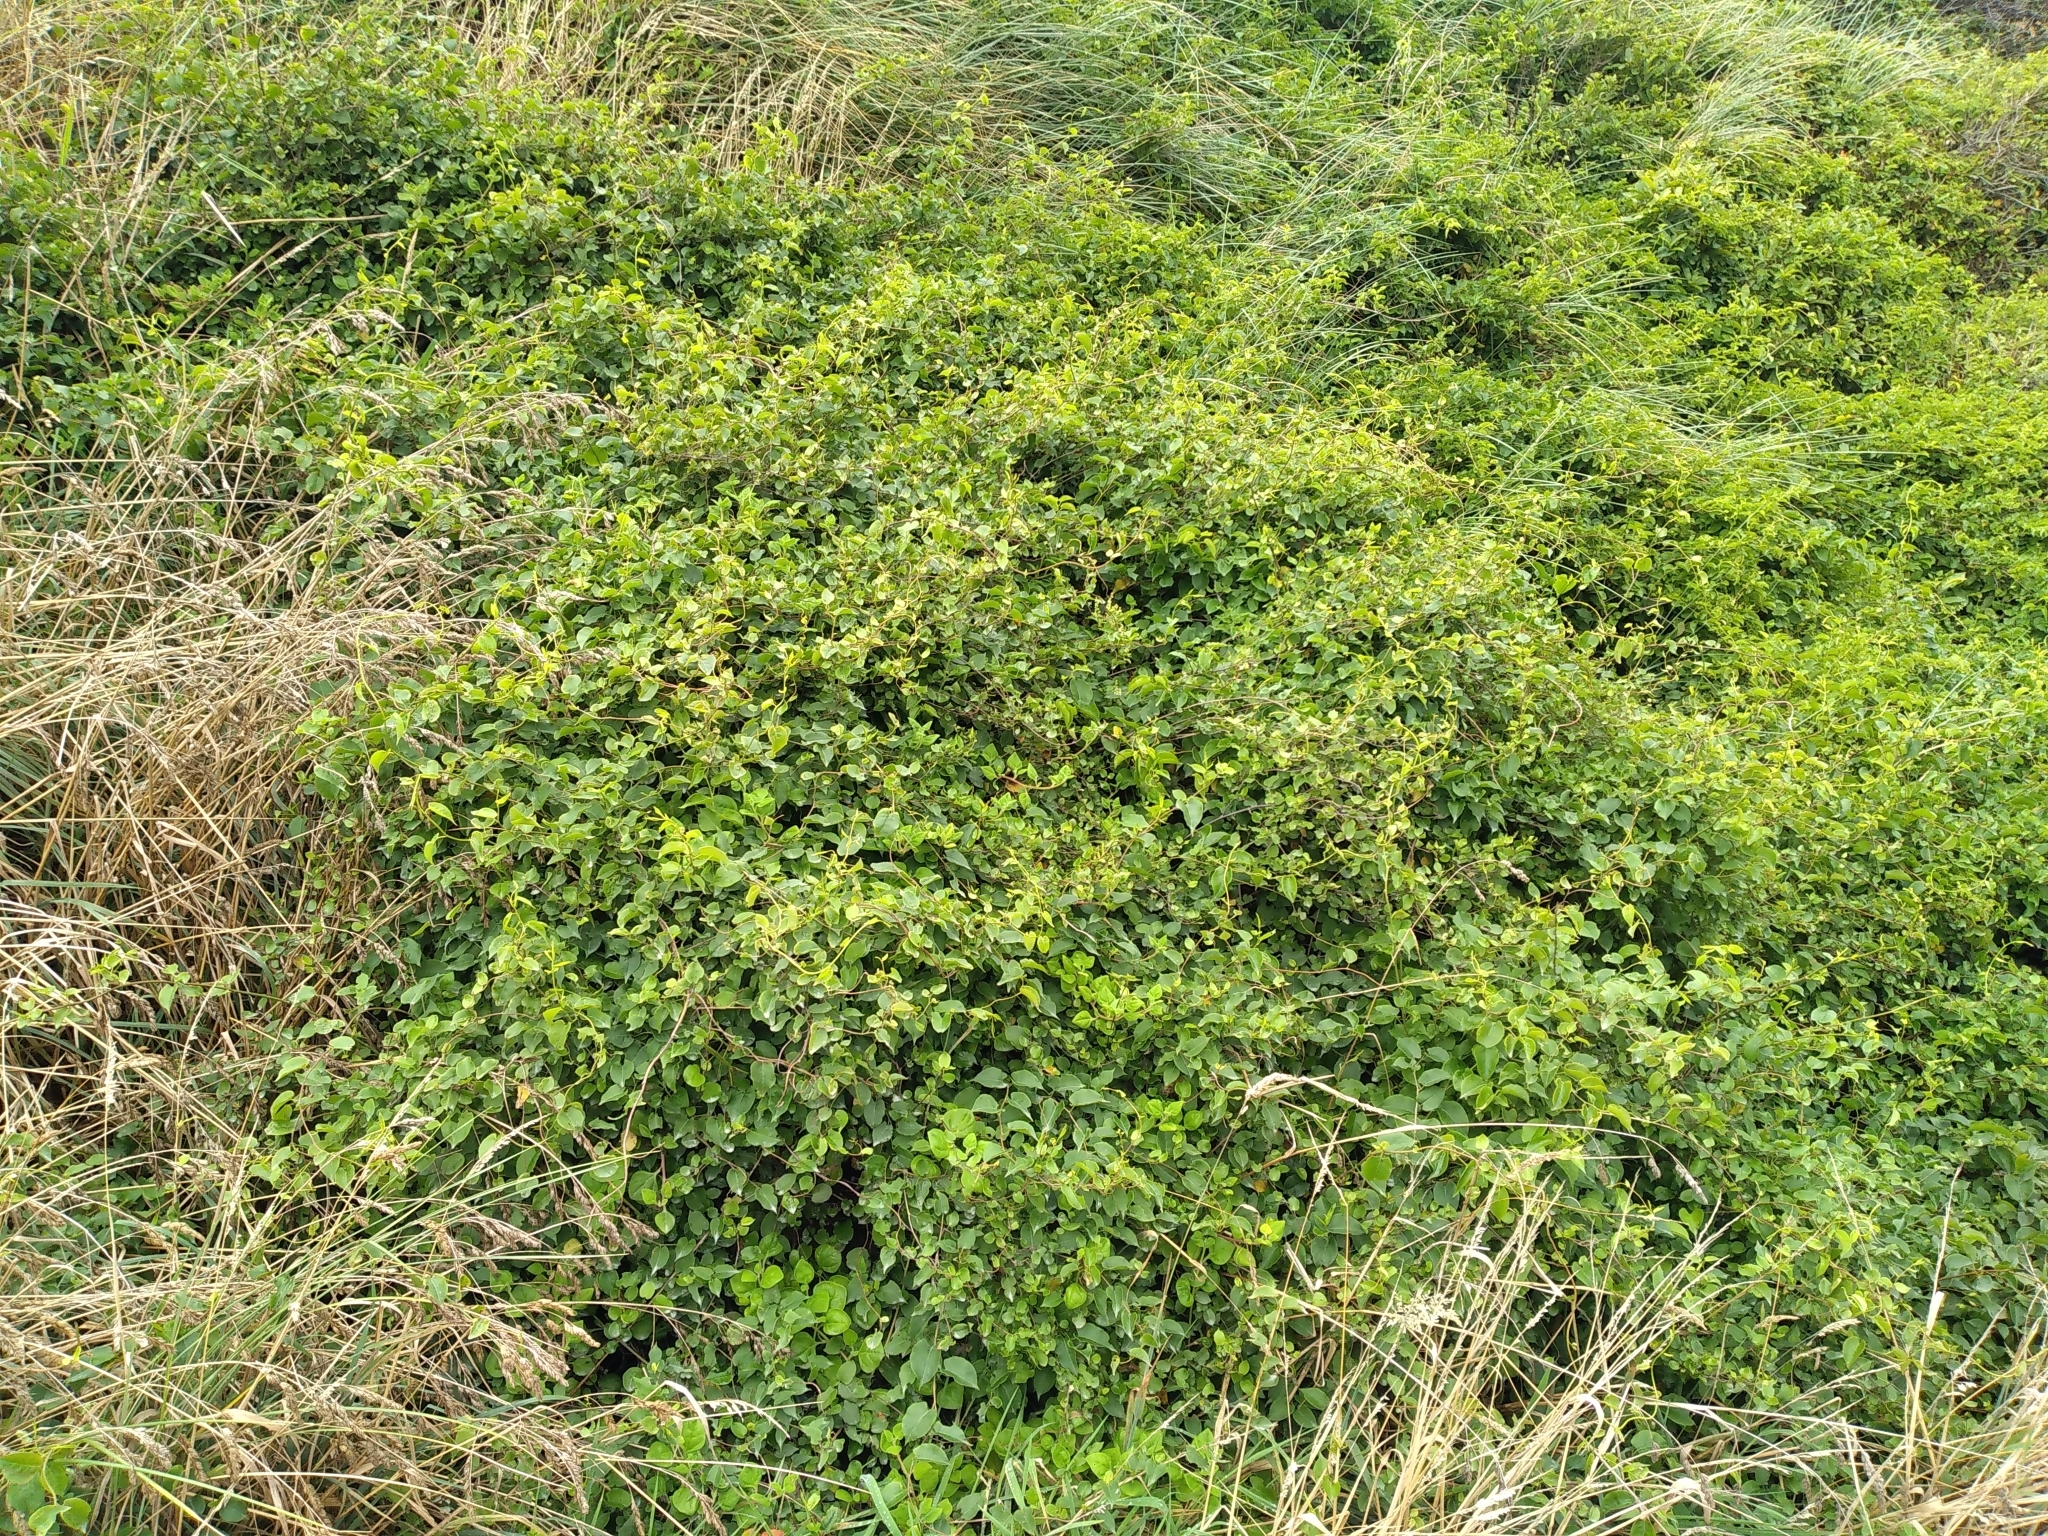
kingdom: Plantae
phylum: Tracheophyta
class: Magnoliopsida
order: Caryophyllales
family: Polygonaceae
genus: Muehlenbeckia
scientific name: Muehlenbeckia australis
